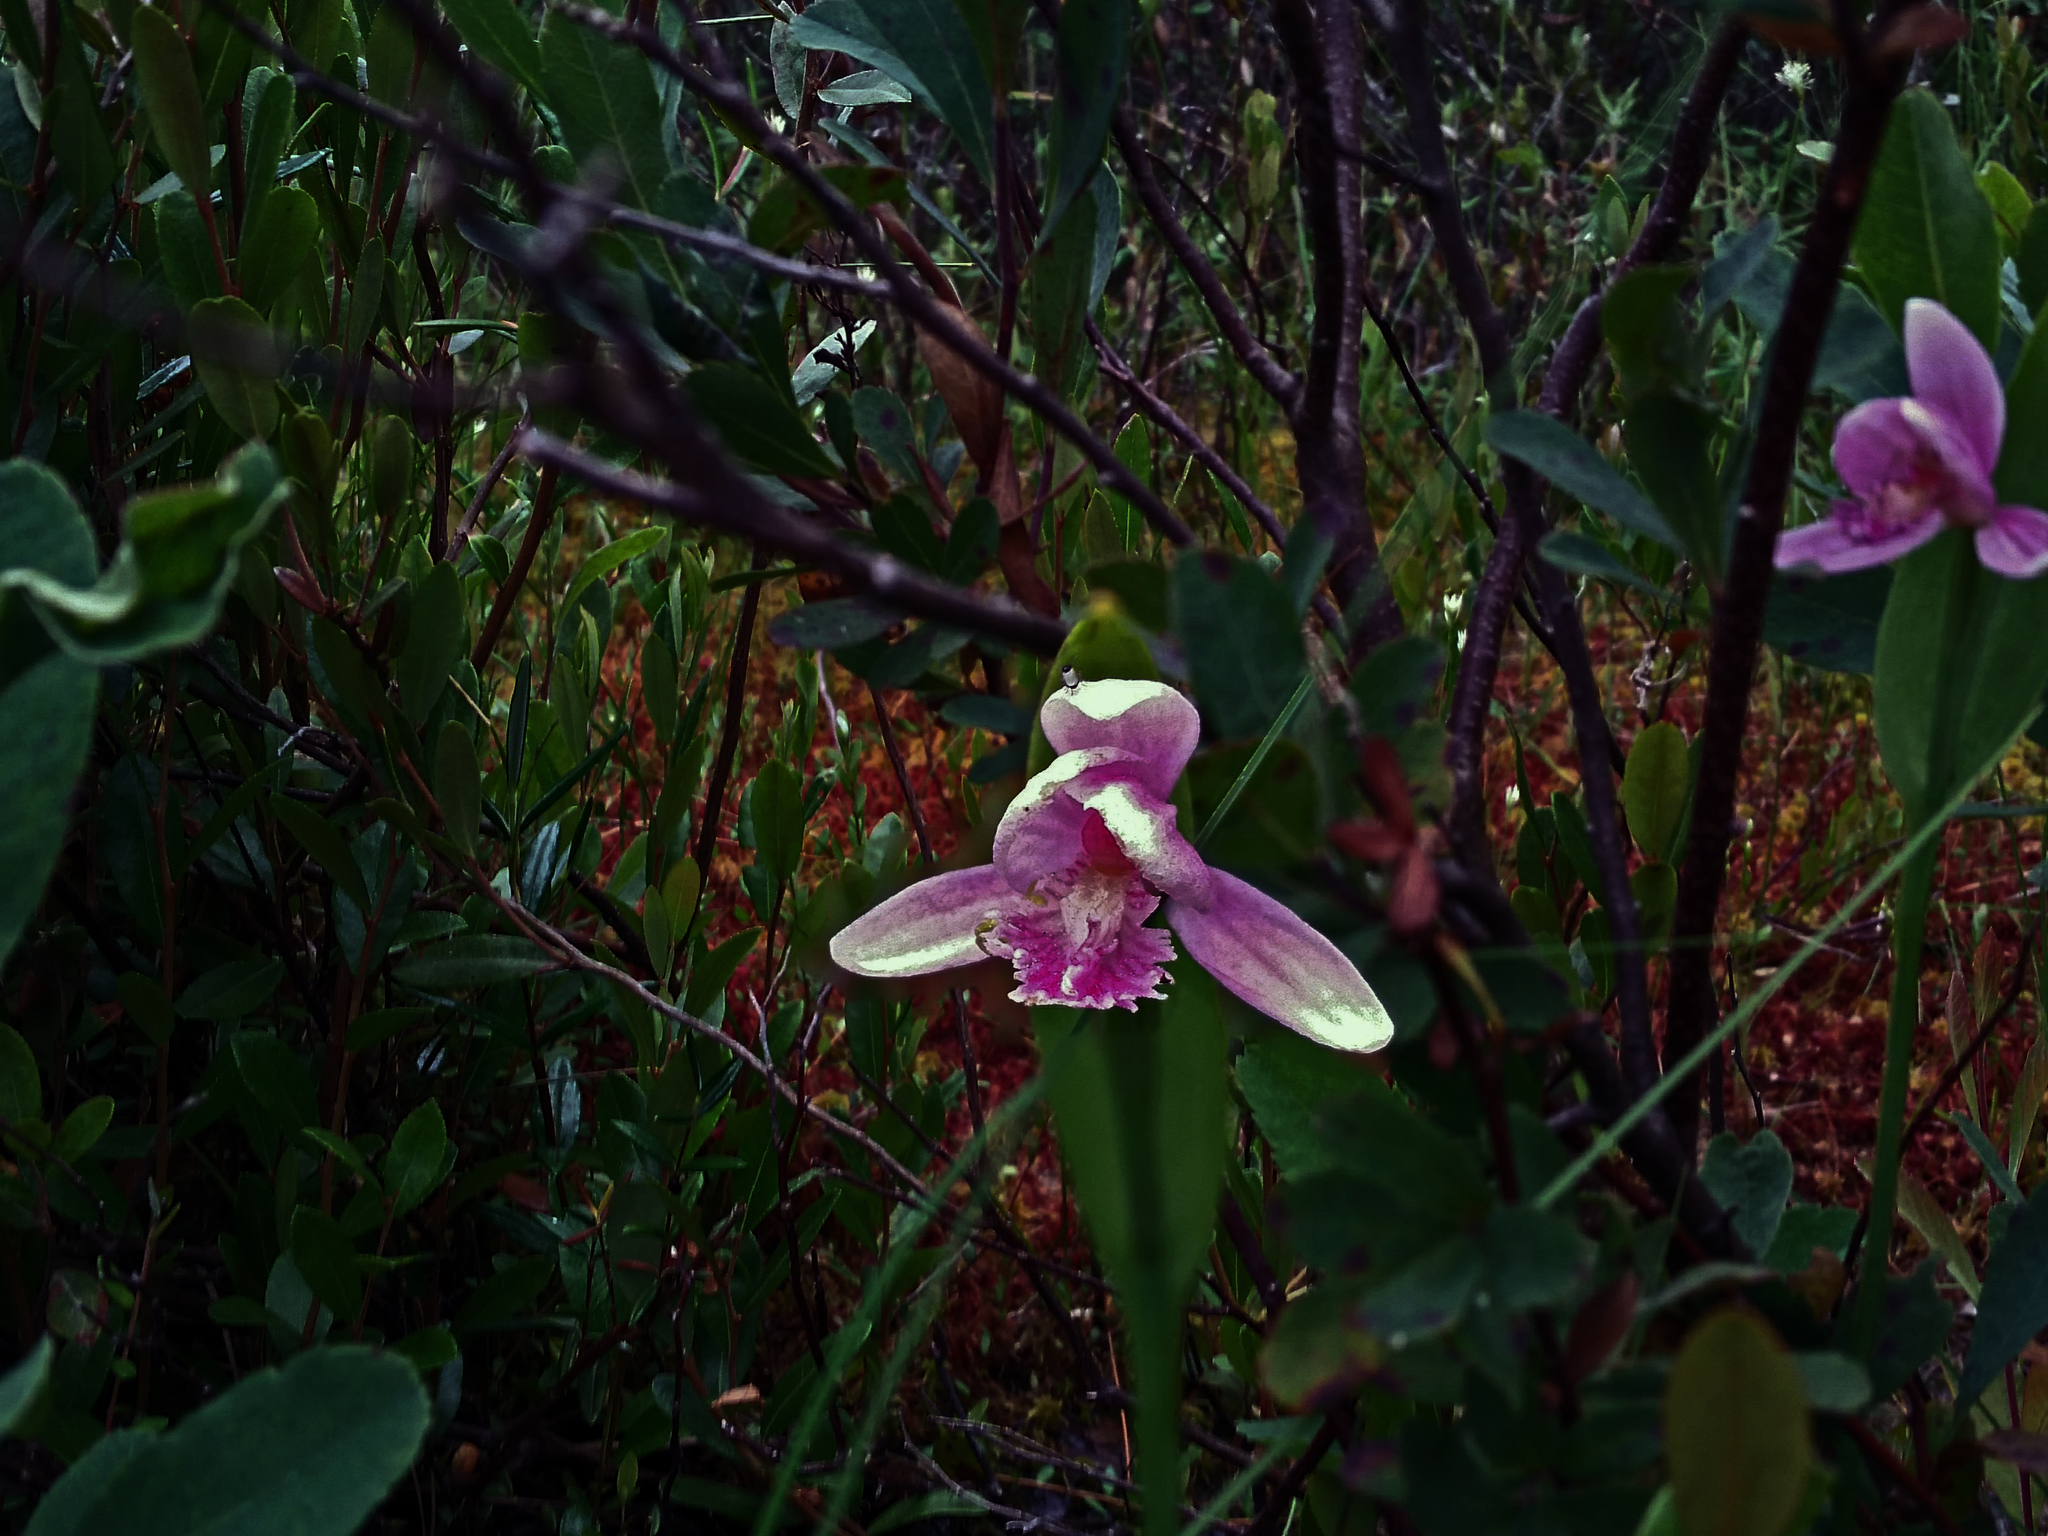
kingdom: Plantae
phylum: Tracheophyta
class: Liliopsida
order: Asparagales
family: Orchidaceae
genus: Pogonia
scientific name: Pogonia ophioglossoides
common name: Rose pogonia
